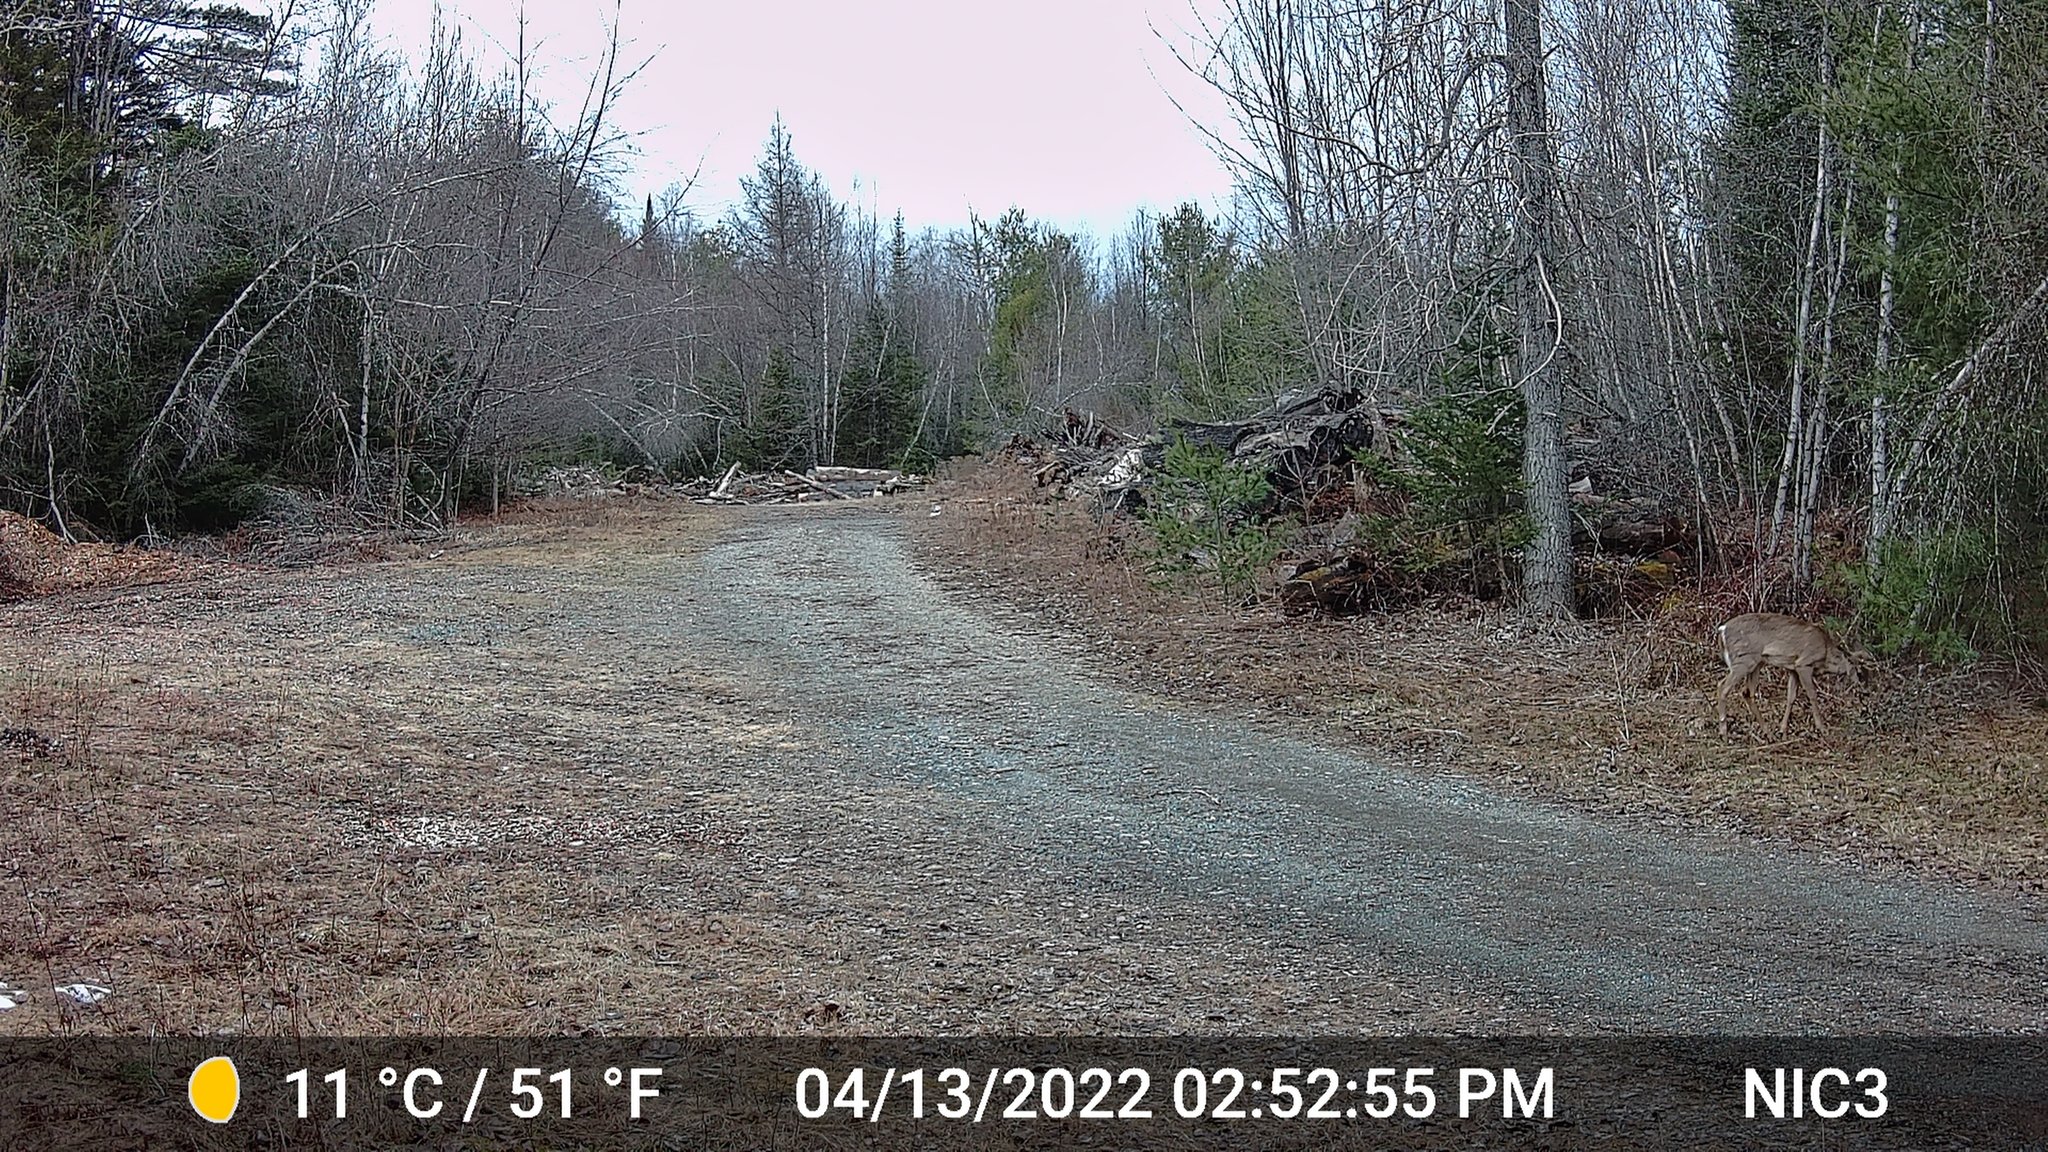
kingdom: Animalia
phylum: Chordata
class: Mammalia
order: Artiodactyla
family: Cervidae
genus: Odocoileus
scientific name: Odocoileus virginianus
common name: White-tailed deer
